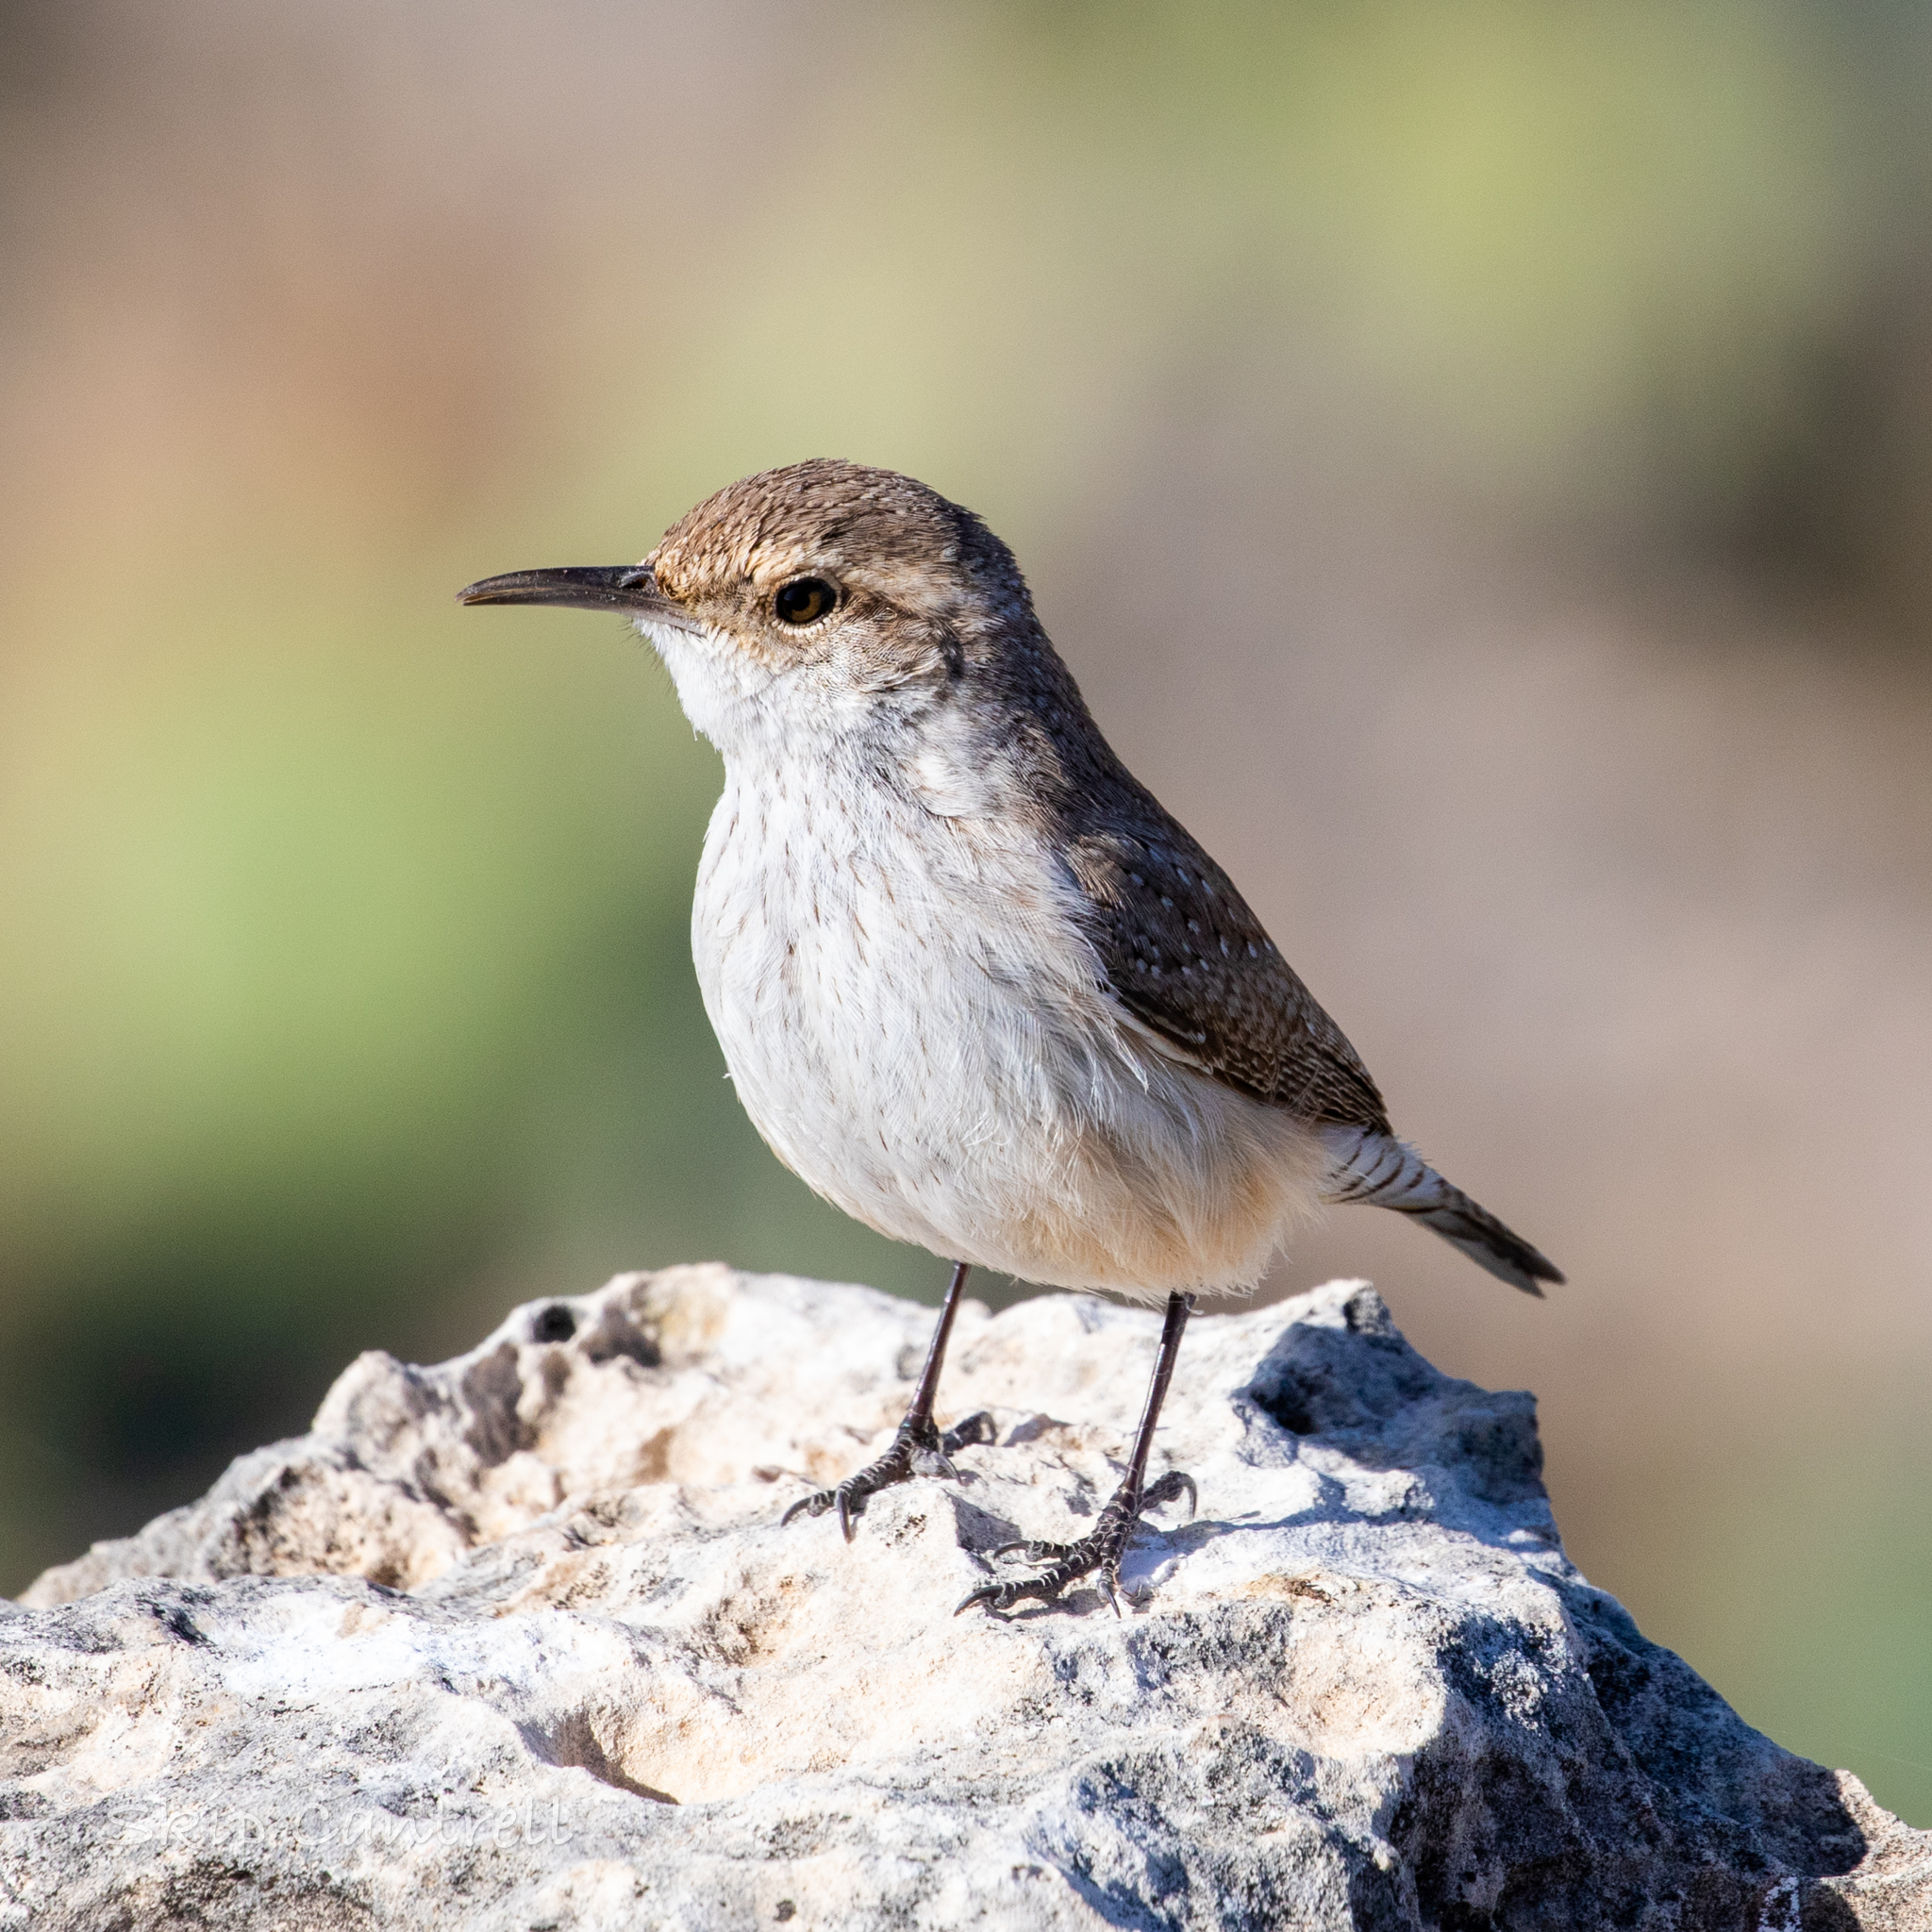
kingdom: Animalia
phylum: Chordata
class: Aves
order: Passeriformes
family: Troglodytidae
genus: Salpinctes
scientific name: Salpinctes obsoletus
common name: Rock wren
